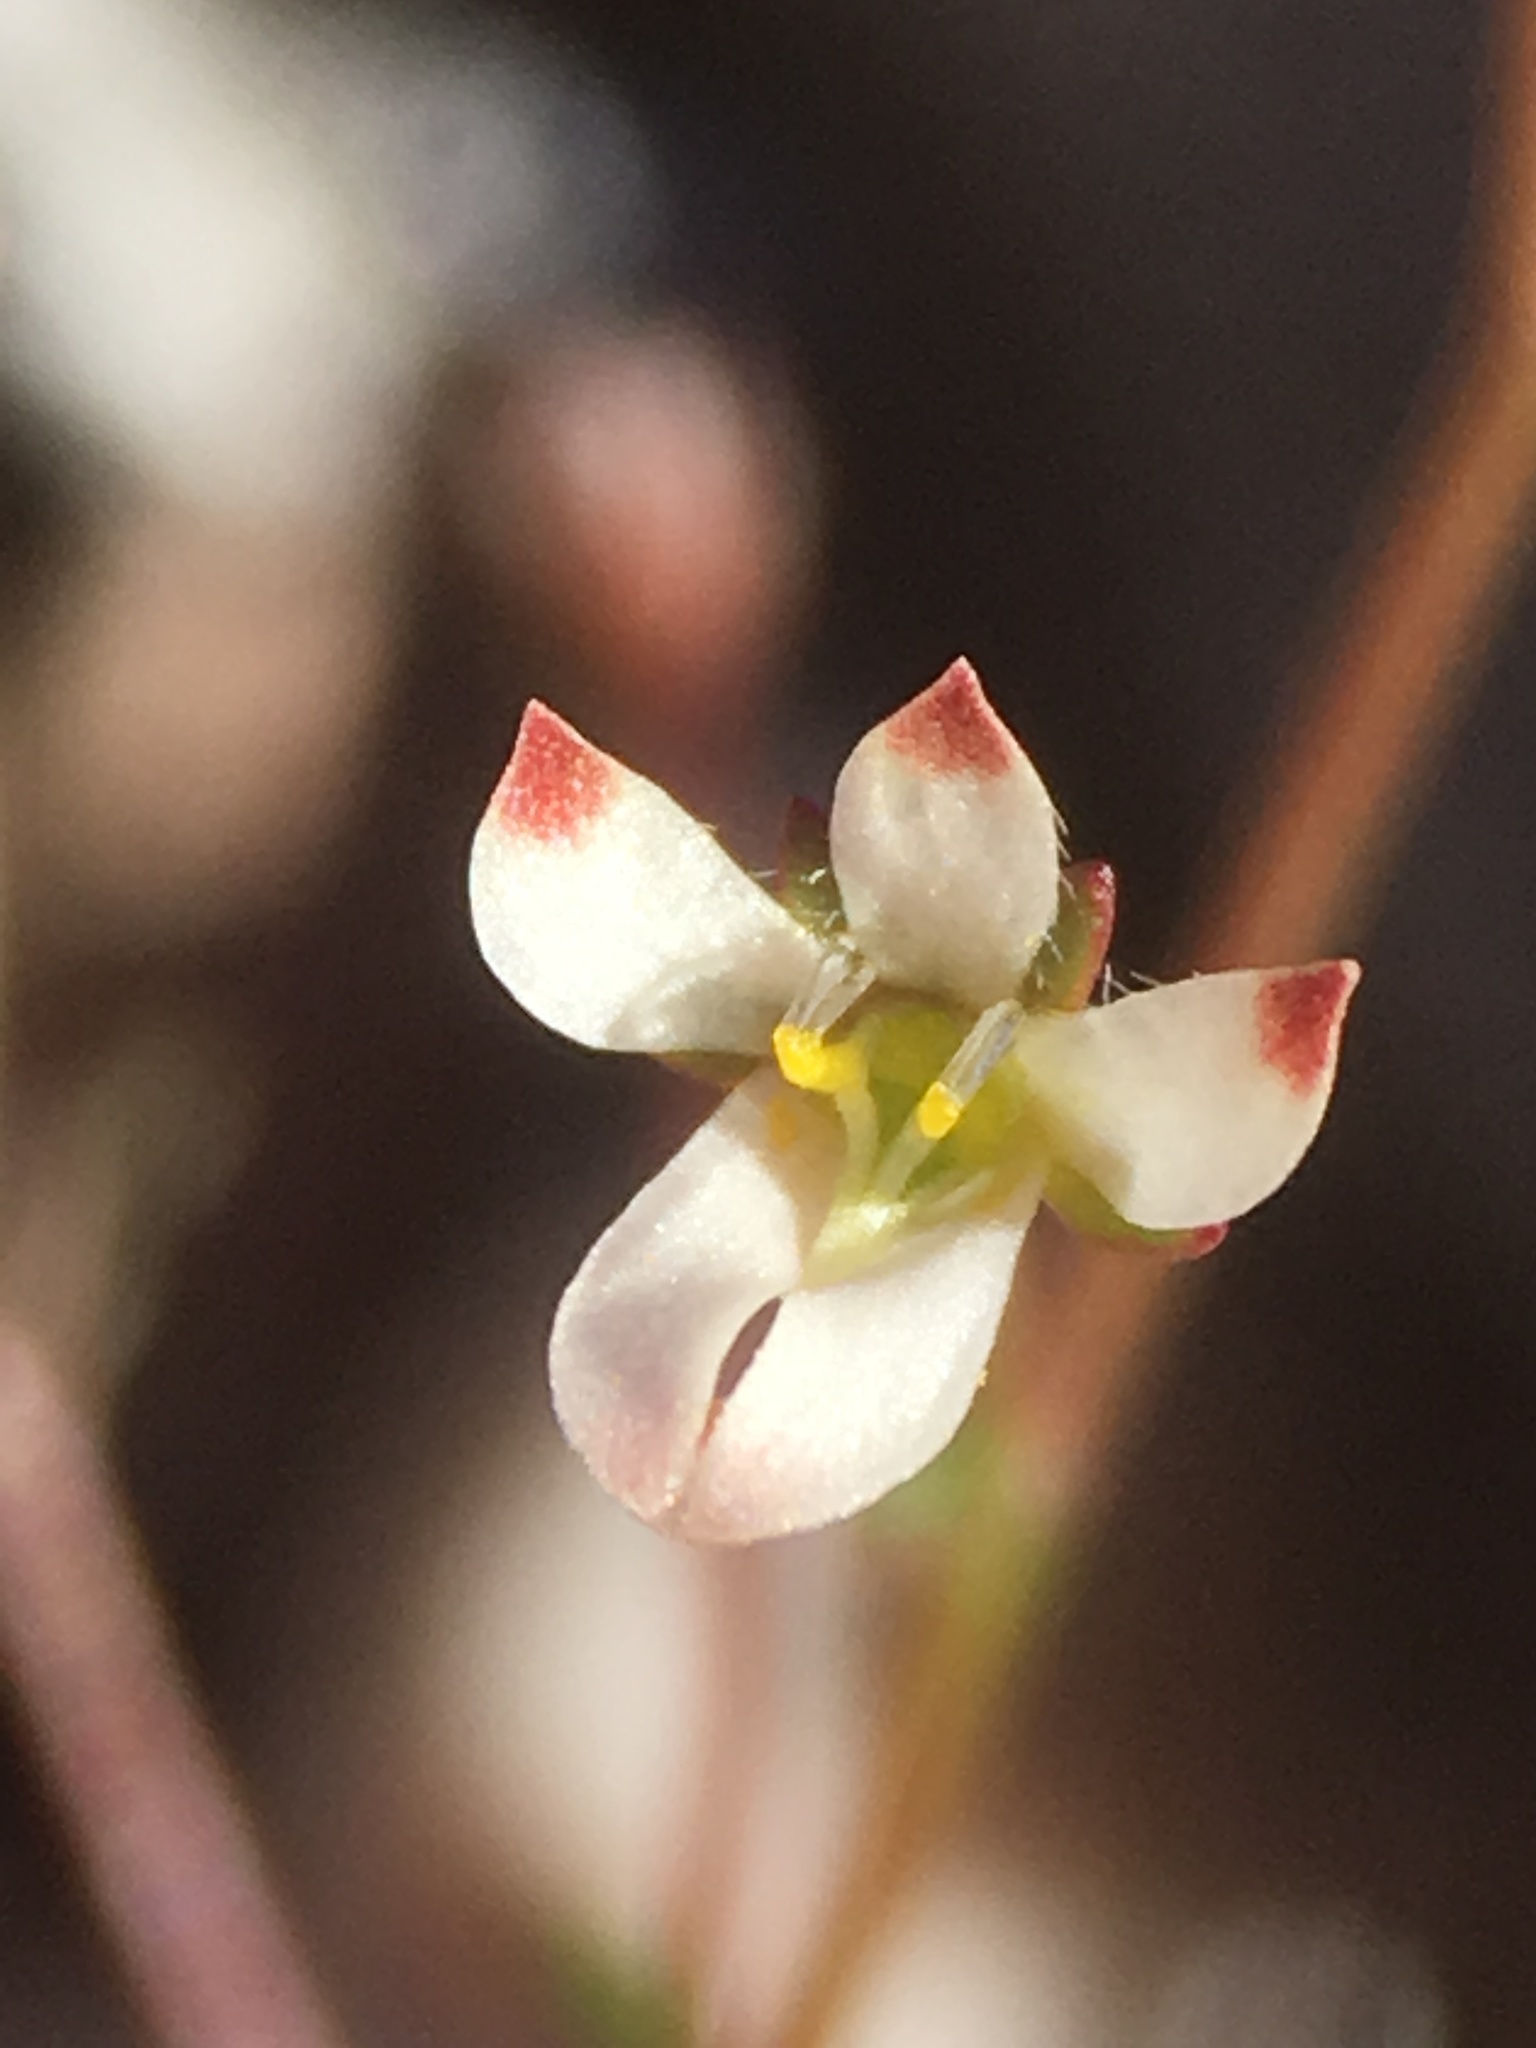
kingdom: Plantae
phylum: Tracheophyta
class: Magnoliopsida
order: Asterales
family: Campanulaceae
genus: Nemacladus
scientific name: Nemacladus orientalis
